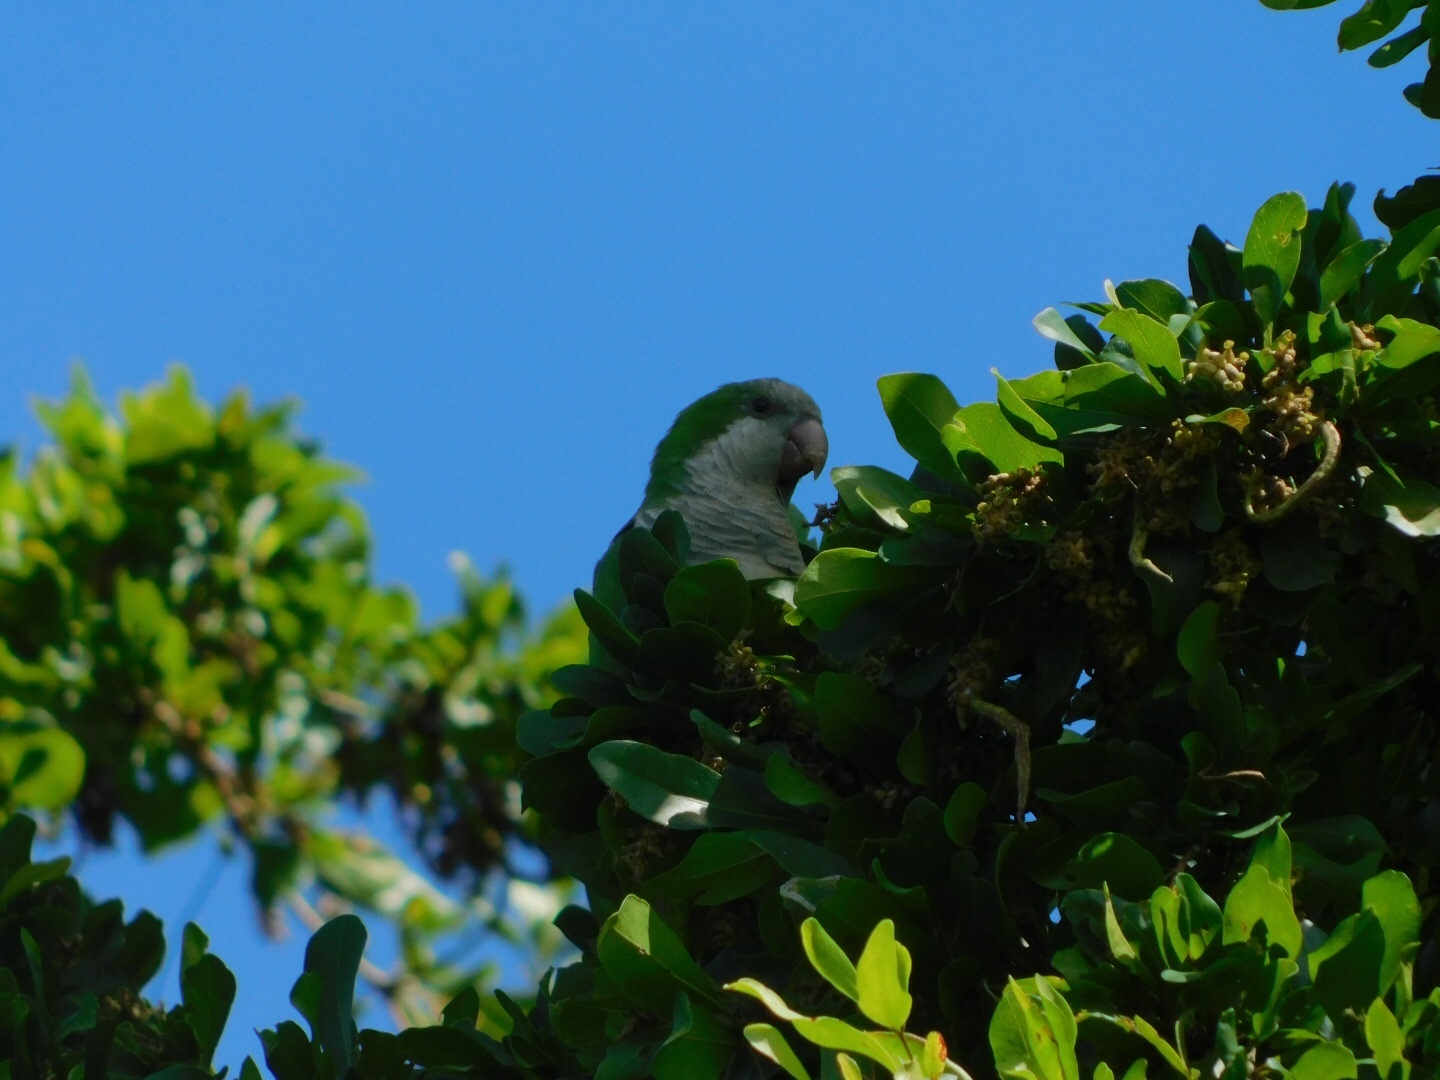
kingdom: Animalia
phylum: Chordata
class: Aves
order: Psittaciformes
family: Psittacidae
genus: Myiopsitta
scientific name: Myiopsitta monachus
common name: Monk parakeet
